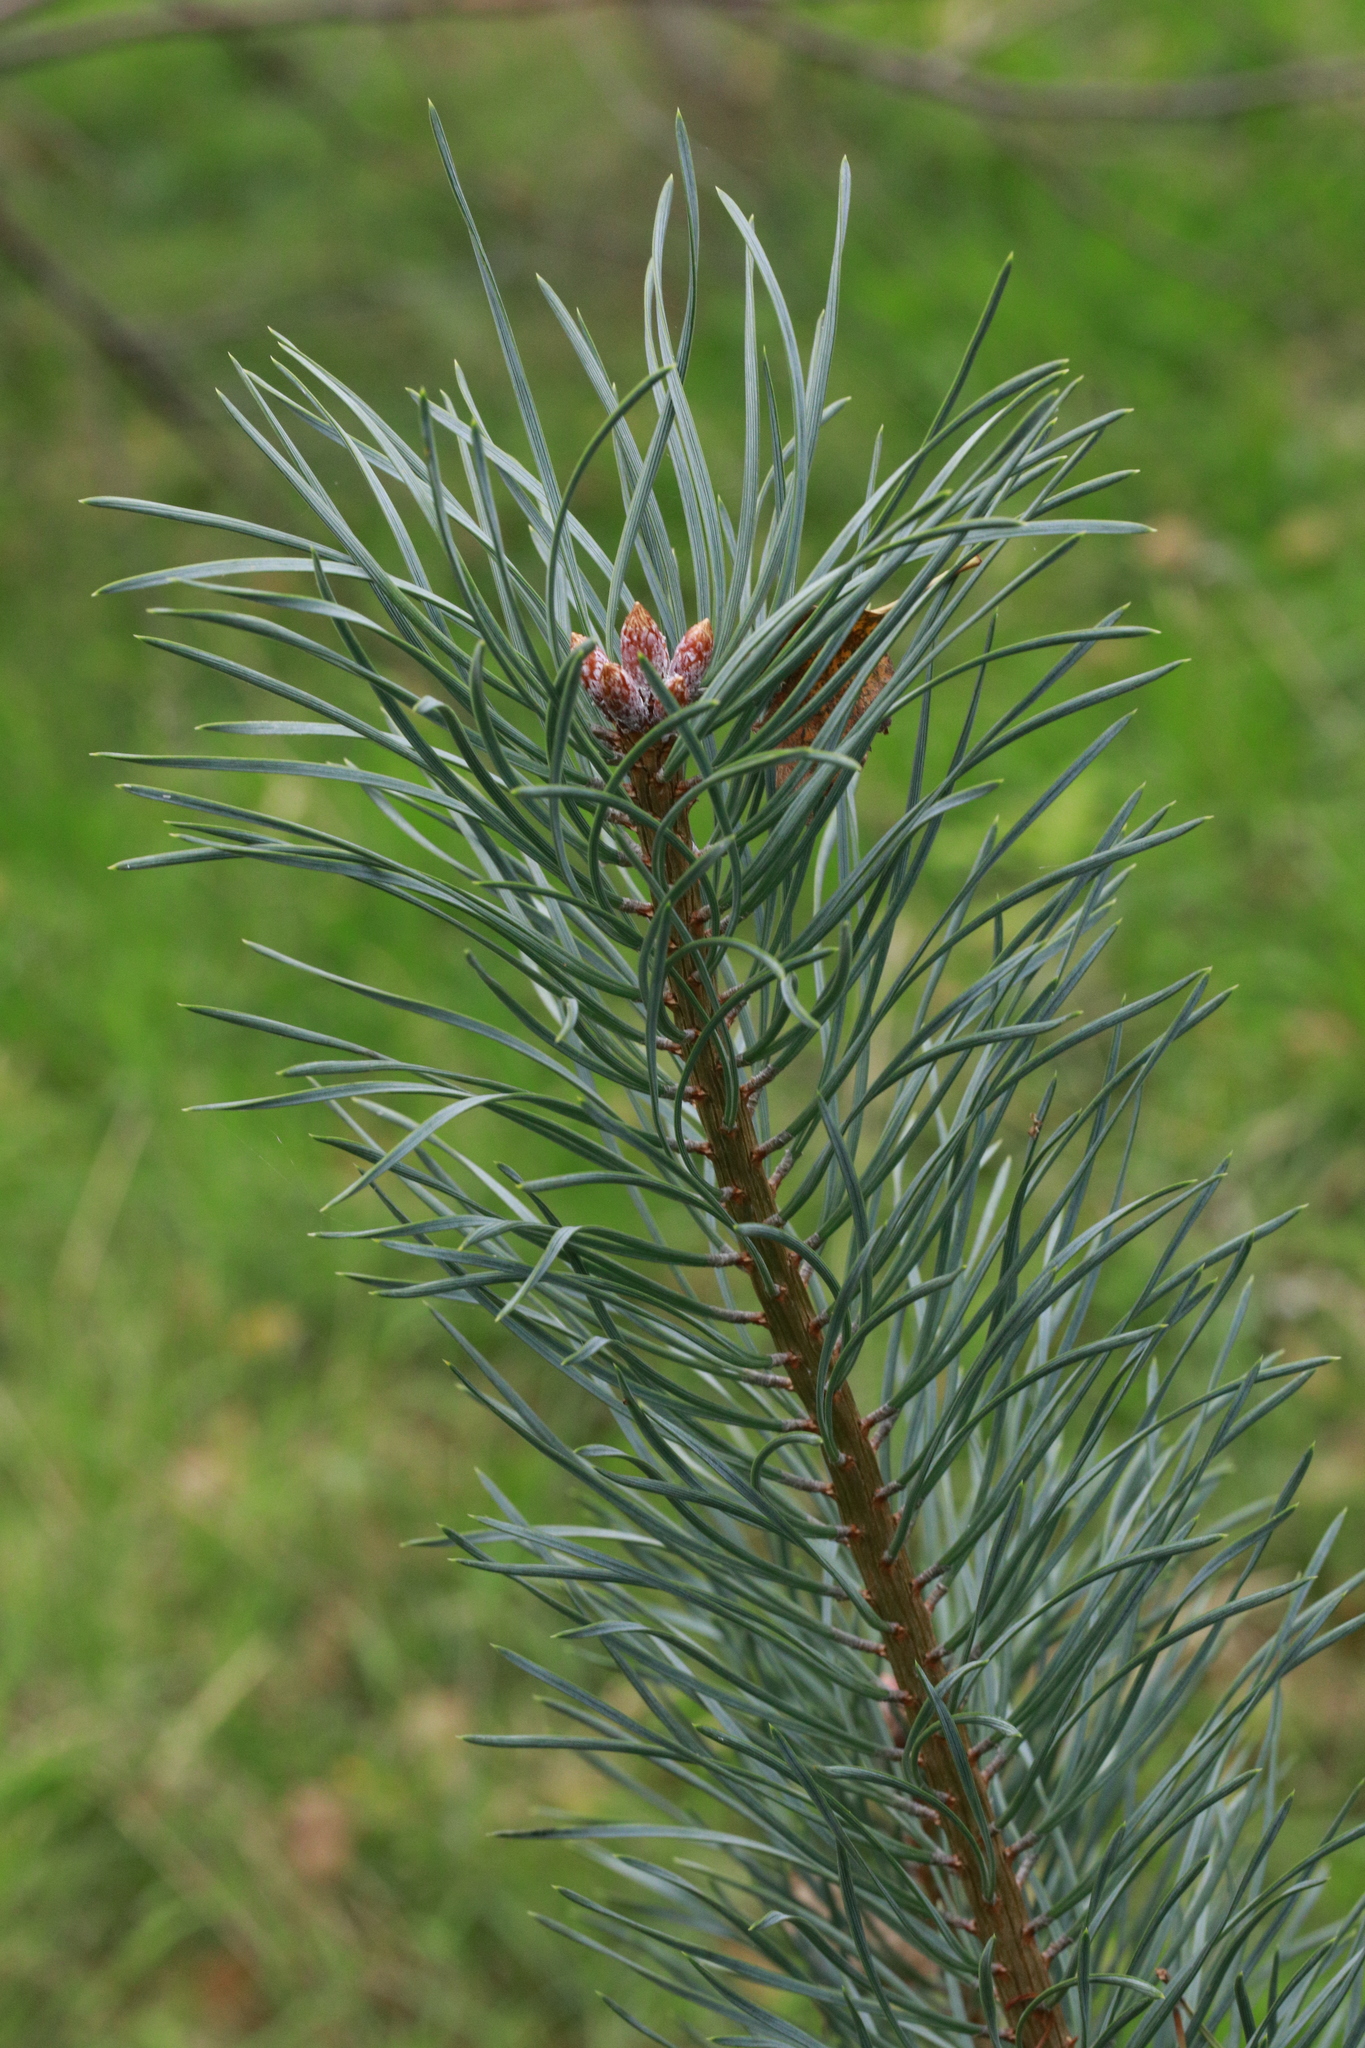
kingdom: Plantae
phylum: Tracheophyta
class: Pinopsida
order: Pinales
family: Pinaceae
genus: Pinus
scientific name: Pinus sylvestris
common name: Scots pine
